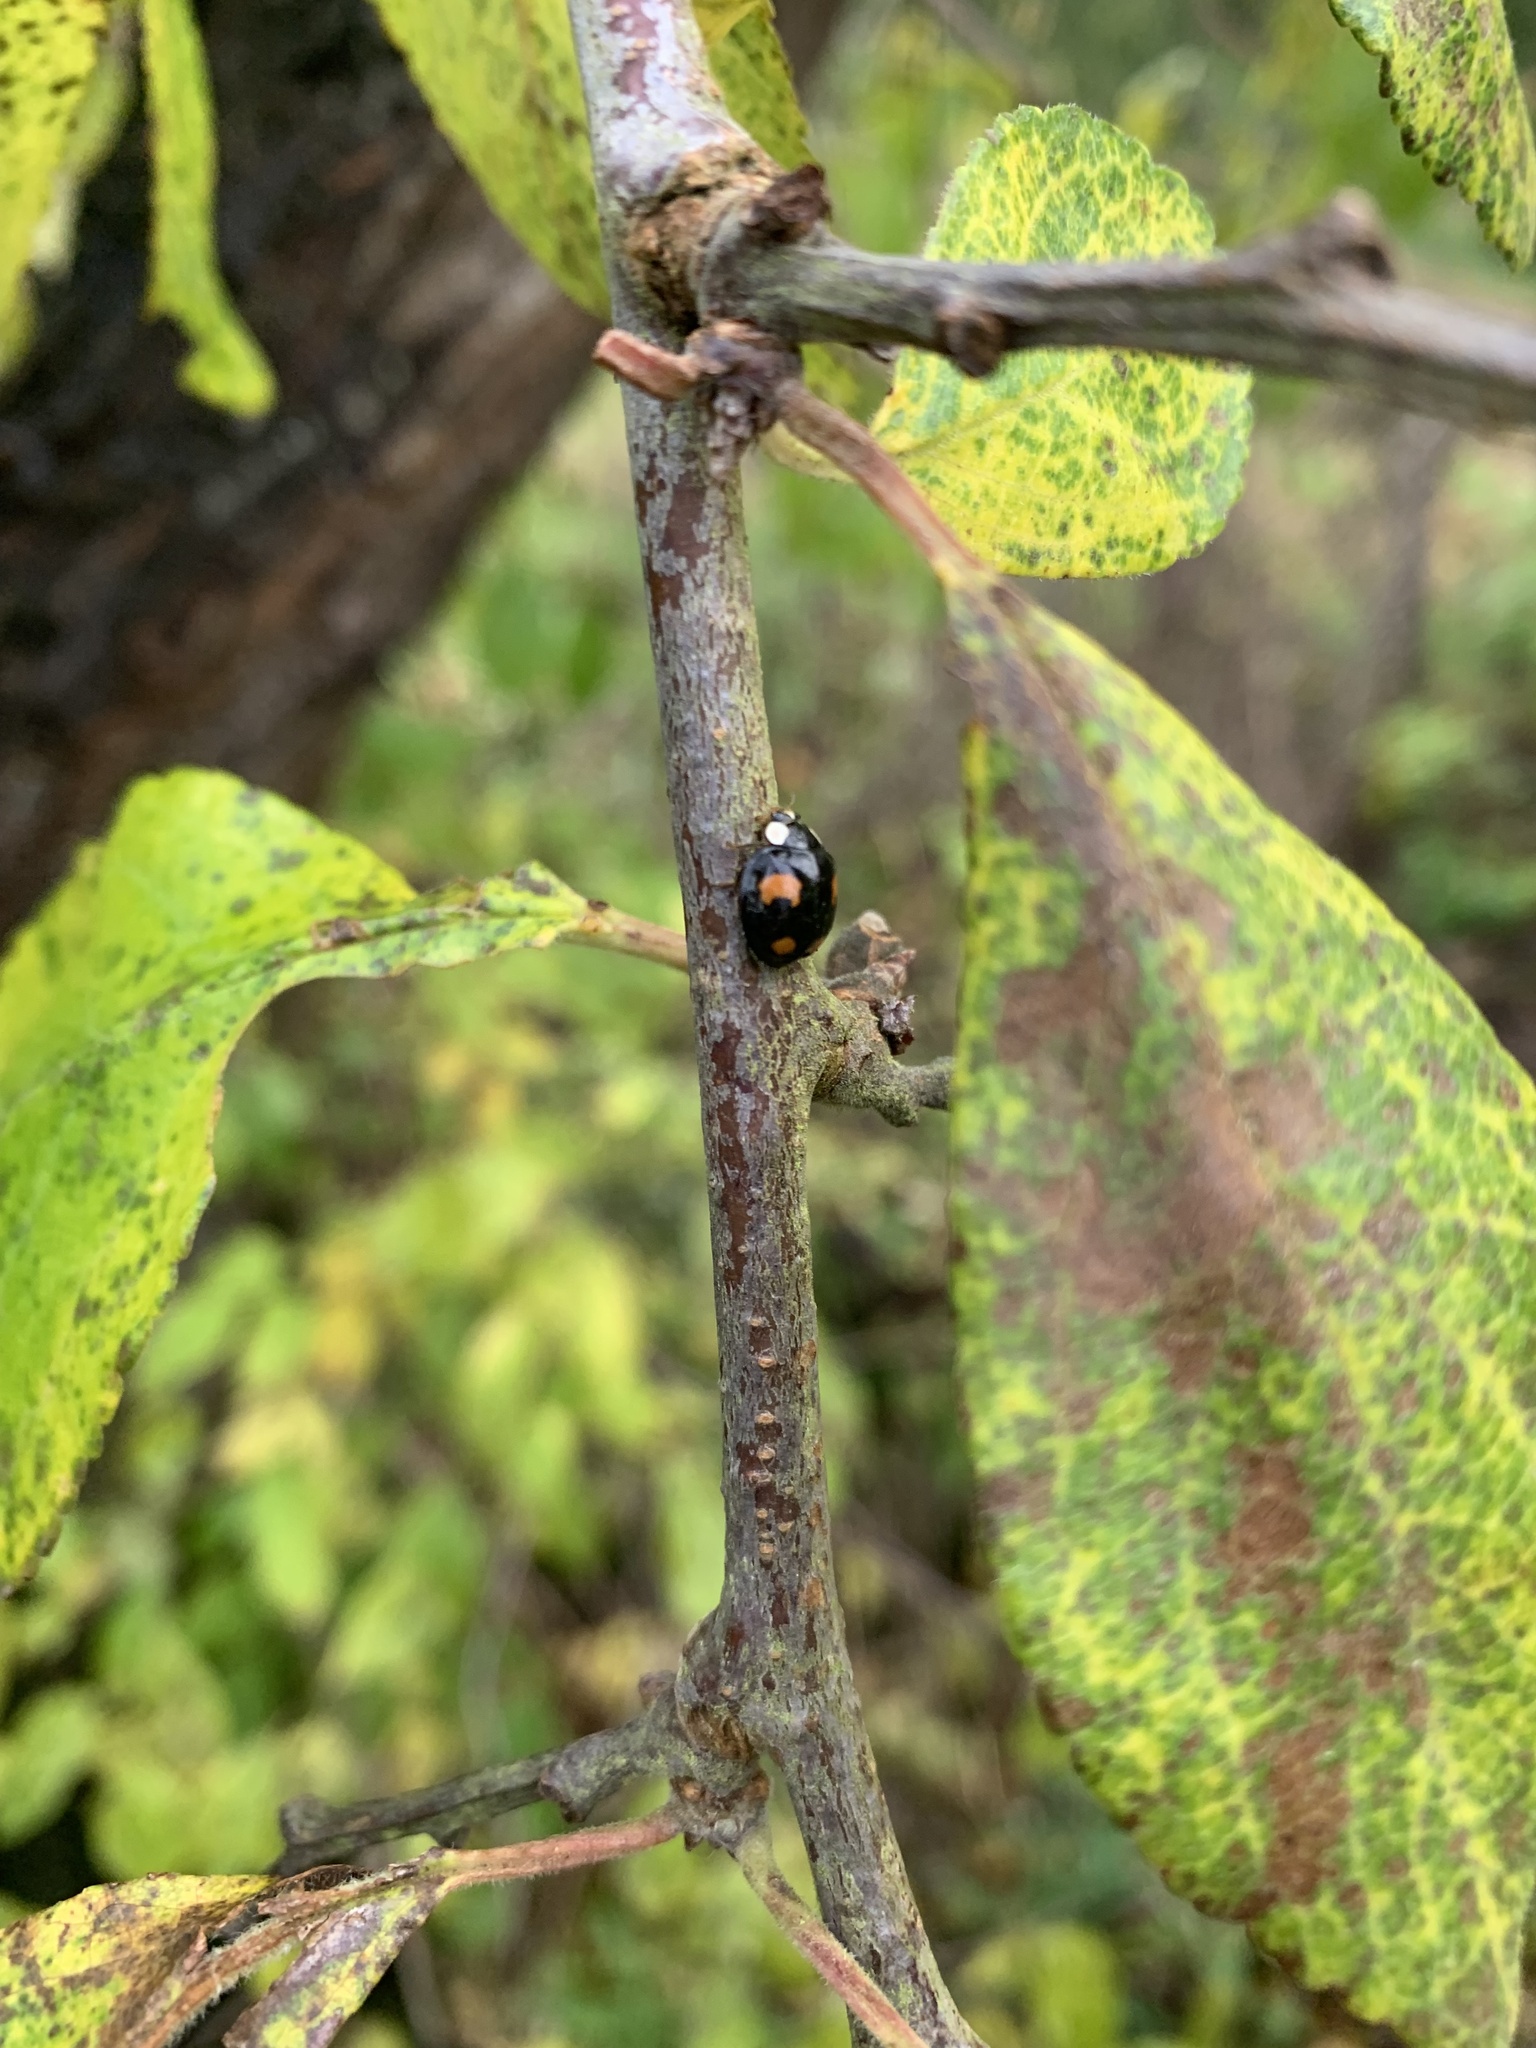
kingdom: Animalia
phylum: Arthropoda
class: Insecta
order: Coleoptera
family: Coccinellidae
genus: Harmonia
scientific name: Harmonia axyridis
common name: Harlequin ladybird
